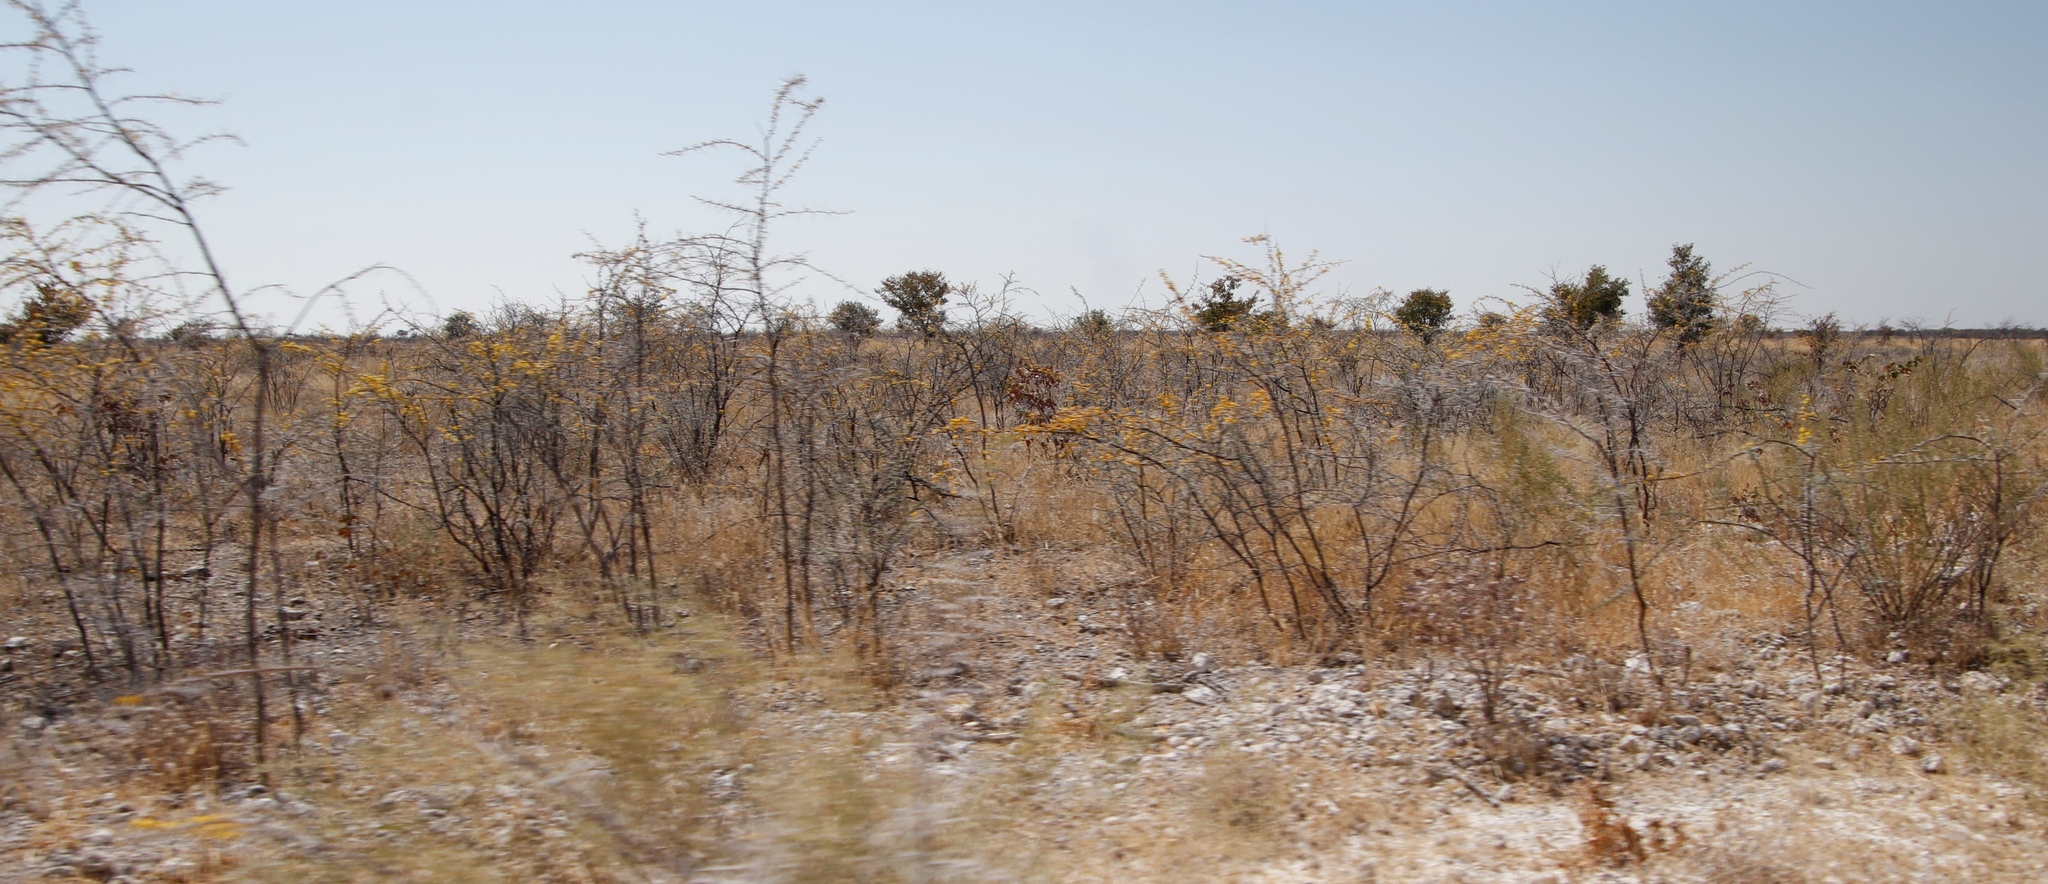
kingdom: Plantae
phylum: Tracheophyta
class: Magnoliopsida
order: Fabales
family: Fabaceae
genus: Vachellia
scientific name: Vachellia nebrownii
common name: Water acacia
